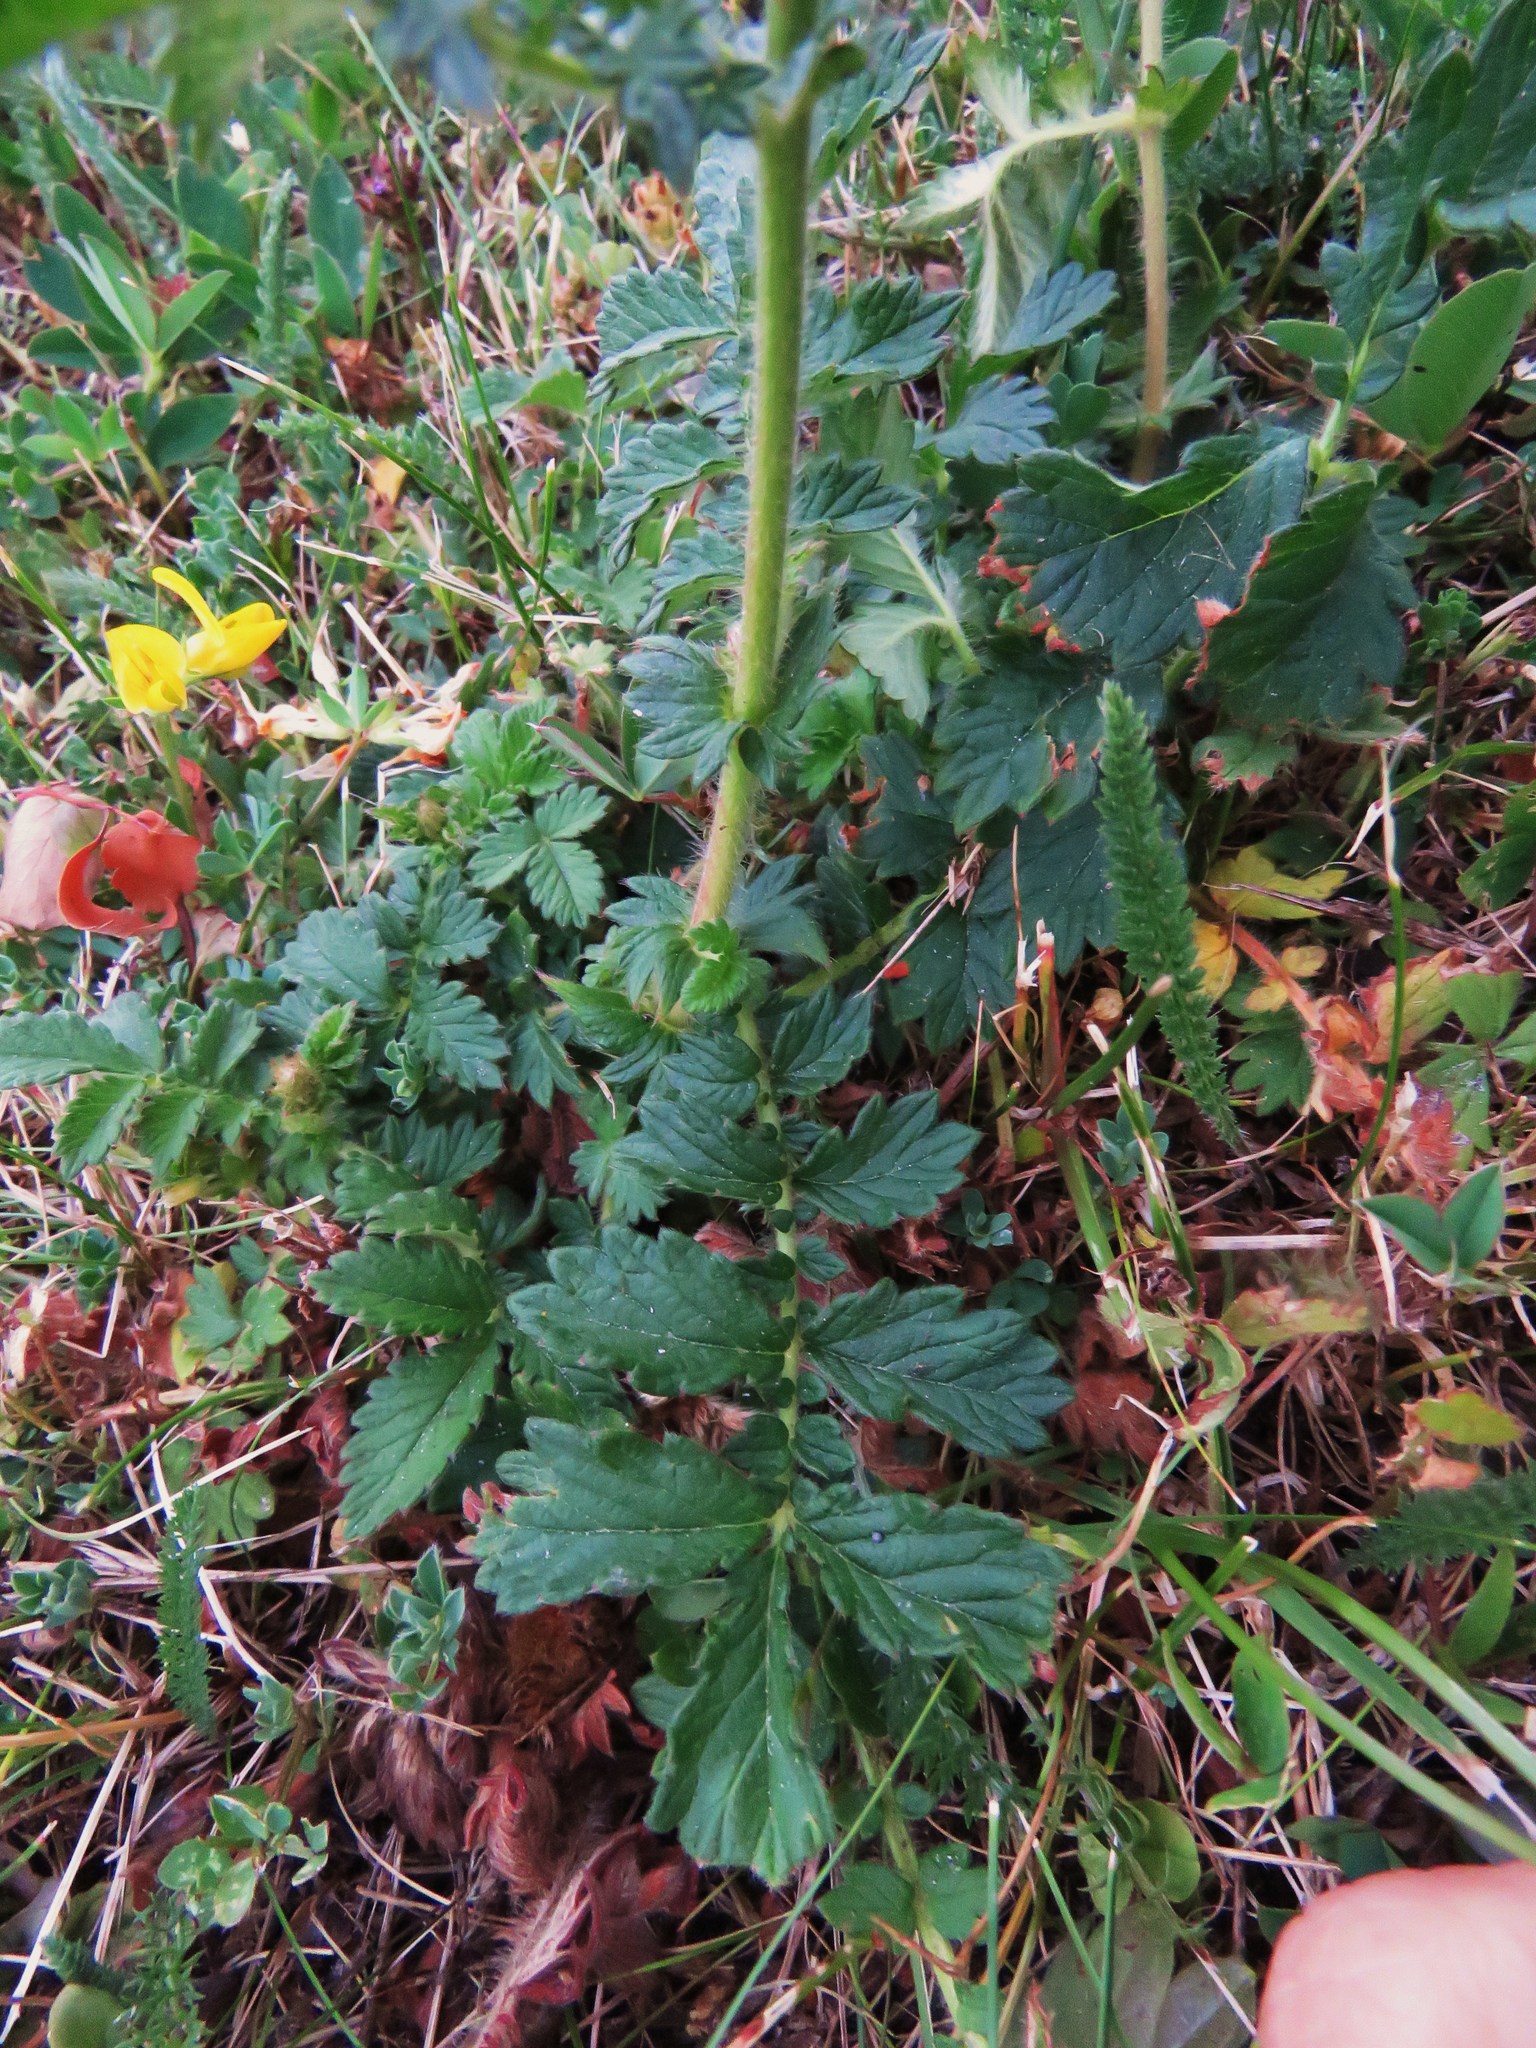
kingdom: Plantae
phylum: Tracheophyta
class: Magnoliopsida
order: Rosales
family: Rosaceae
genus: Agrimonia
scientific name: Agrimonia eupatoria
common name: Agrimony
